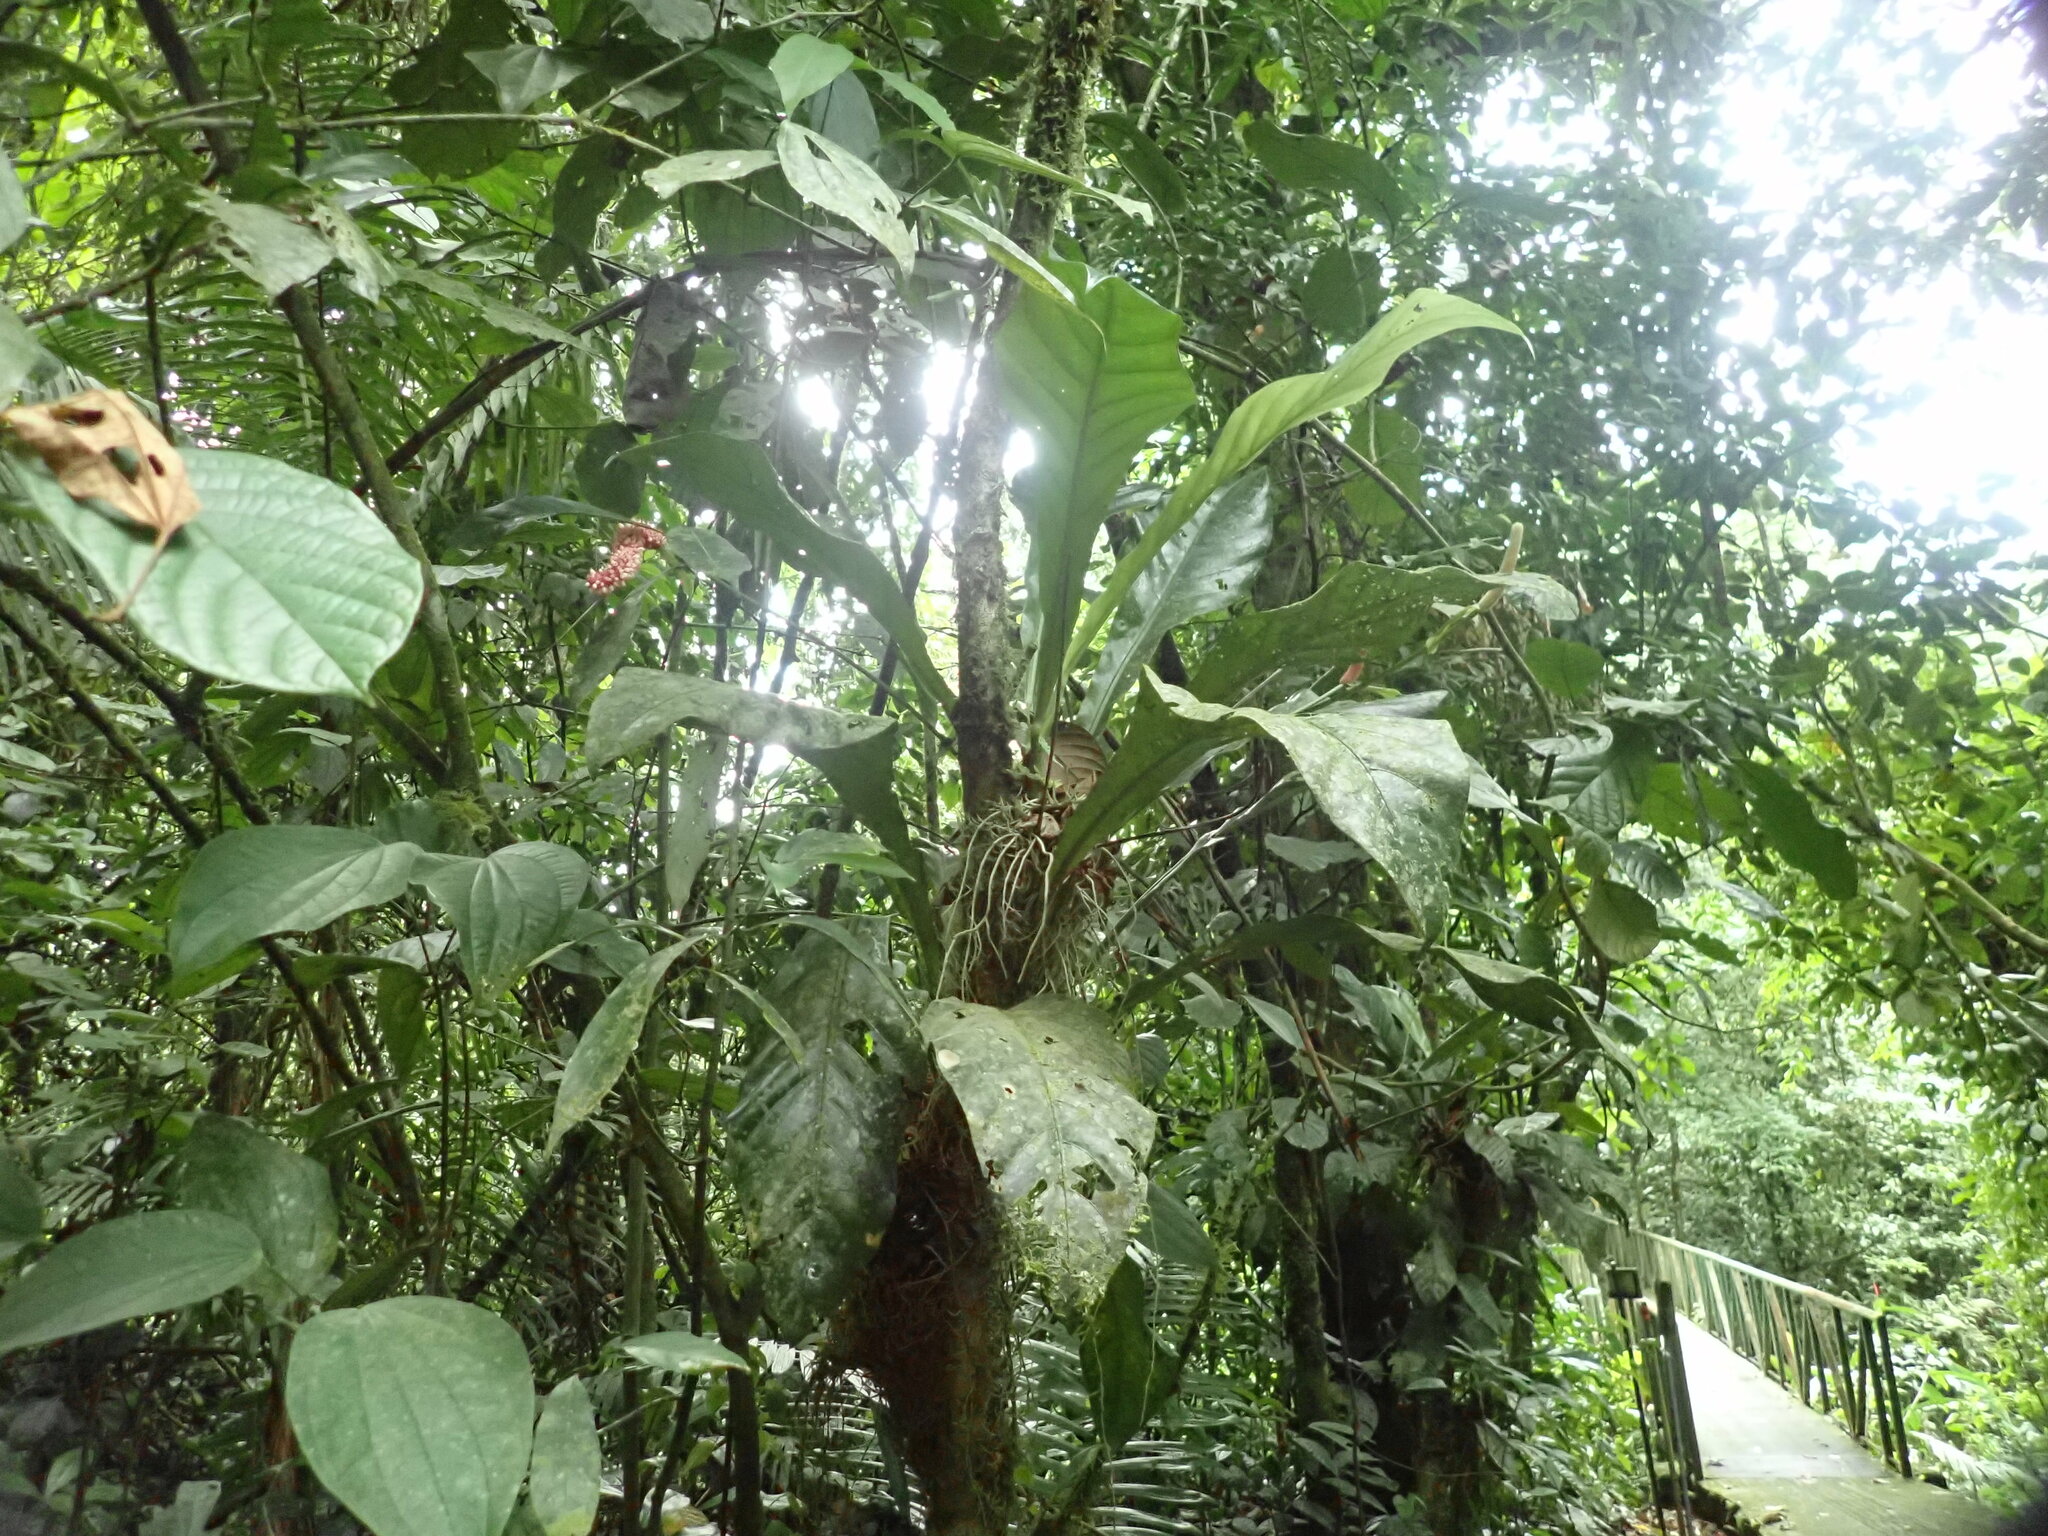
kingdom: Plantae
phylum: Tracheophyta
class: Liliopsida
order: Alismatales
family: Araceae
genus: Anthurium
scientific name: Anthurium consobrinum
